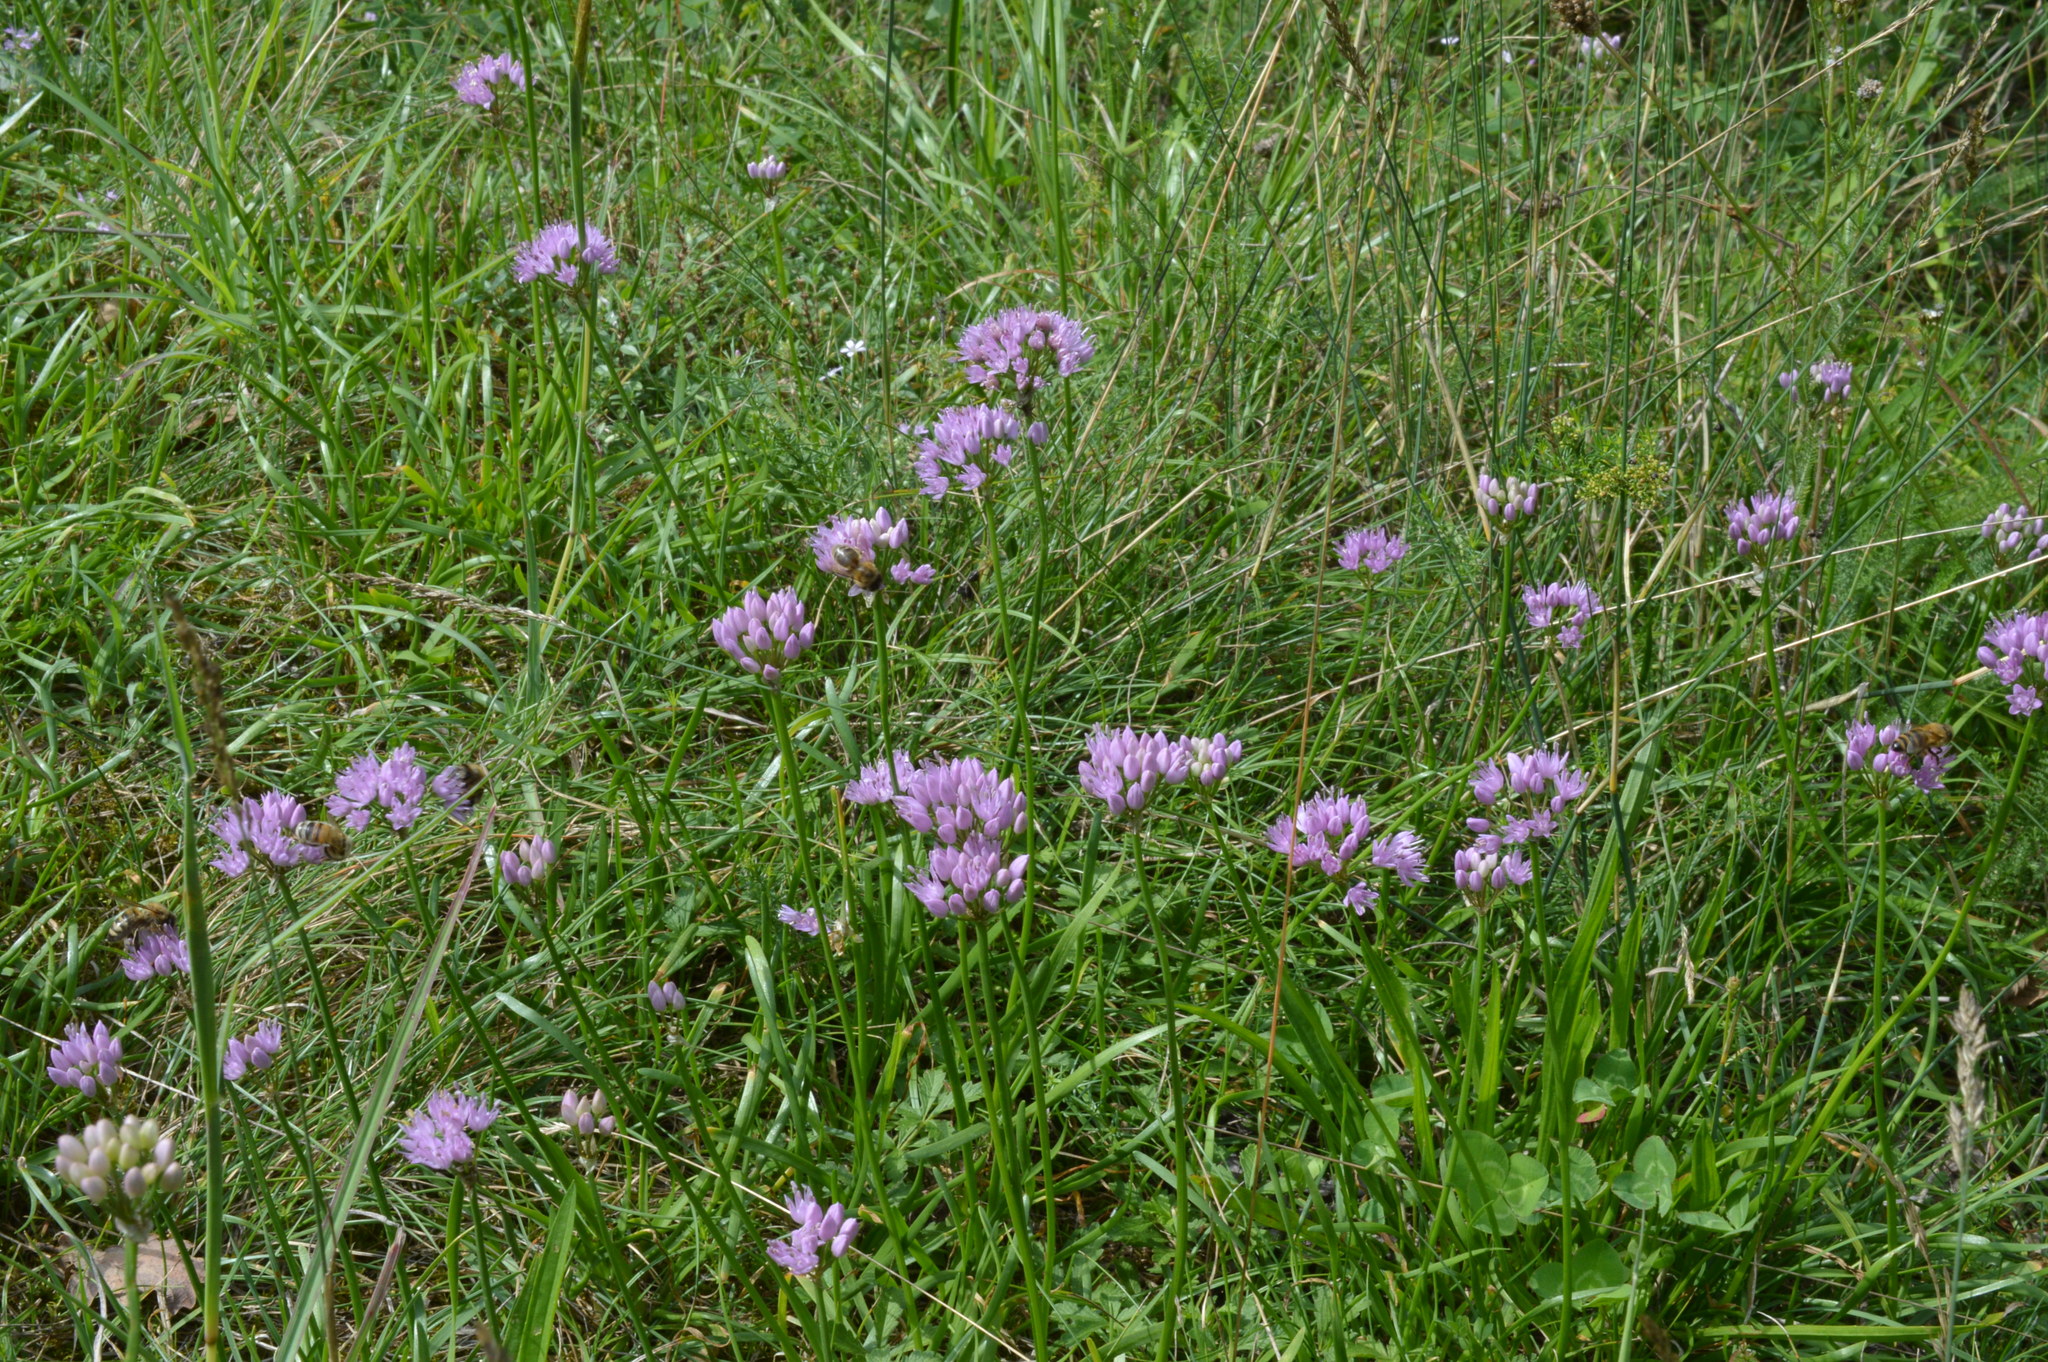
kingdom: Plantae
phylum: Tracheophyta
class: Liliopsida
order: Asparagales
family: Amaryllidaceae
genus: Allium
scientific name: Allium lusitanicum
